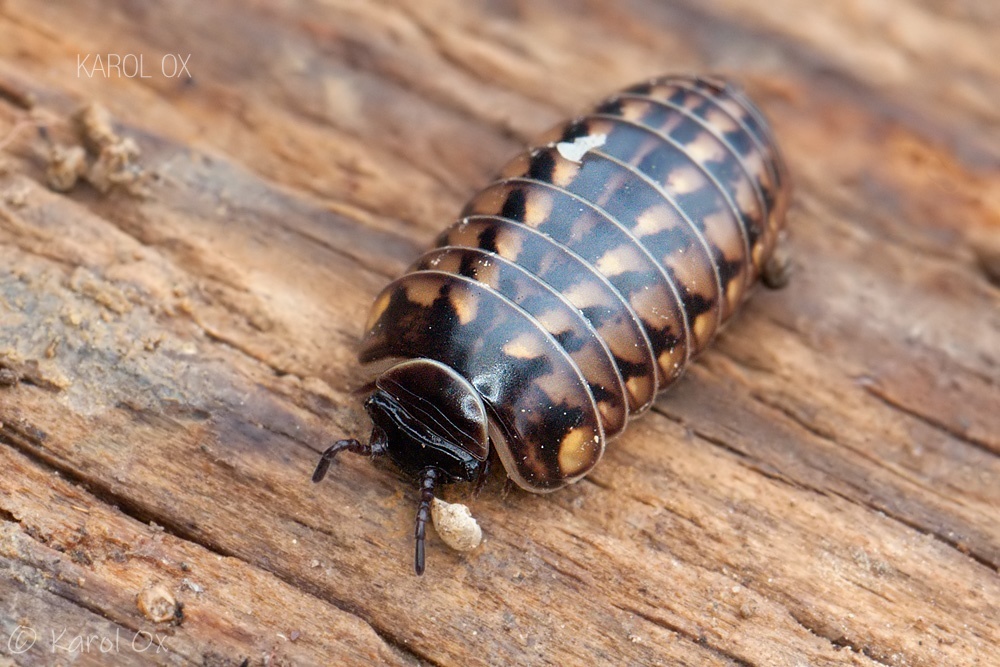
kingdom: Animalia
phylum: Arthropoda
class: Diplopoda
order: Glomerida
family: Glomeridae
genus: Glomeris
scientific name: Glomeris hexasticha
